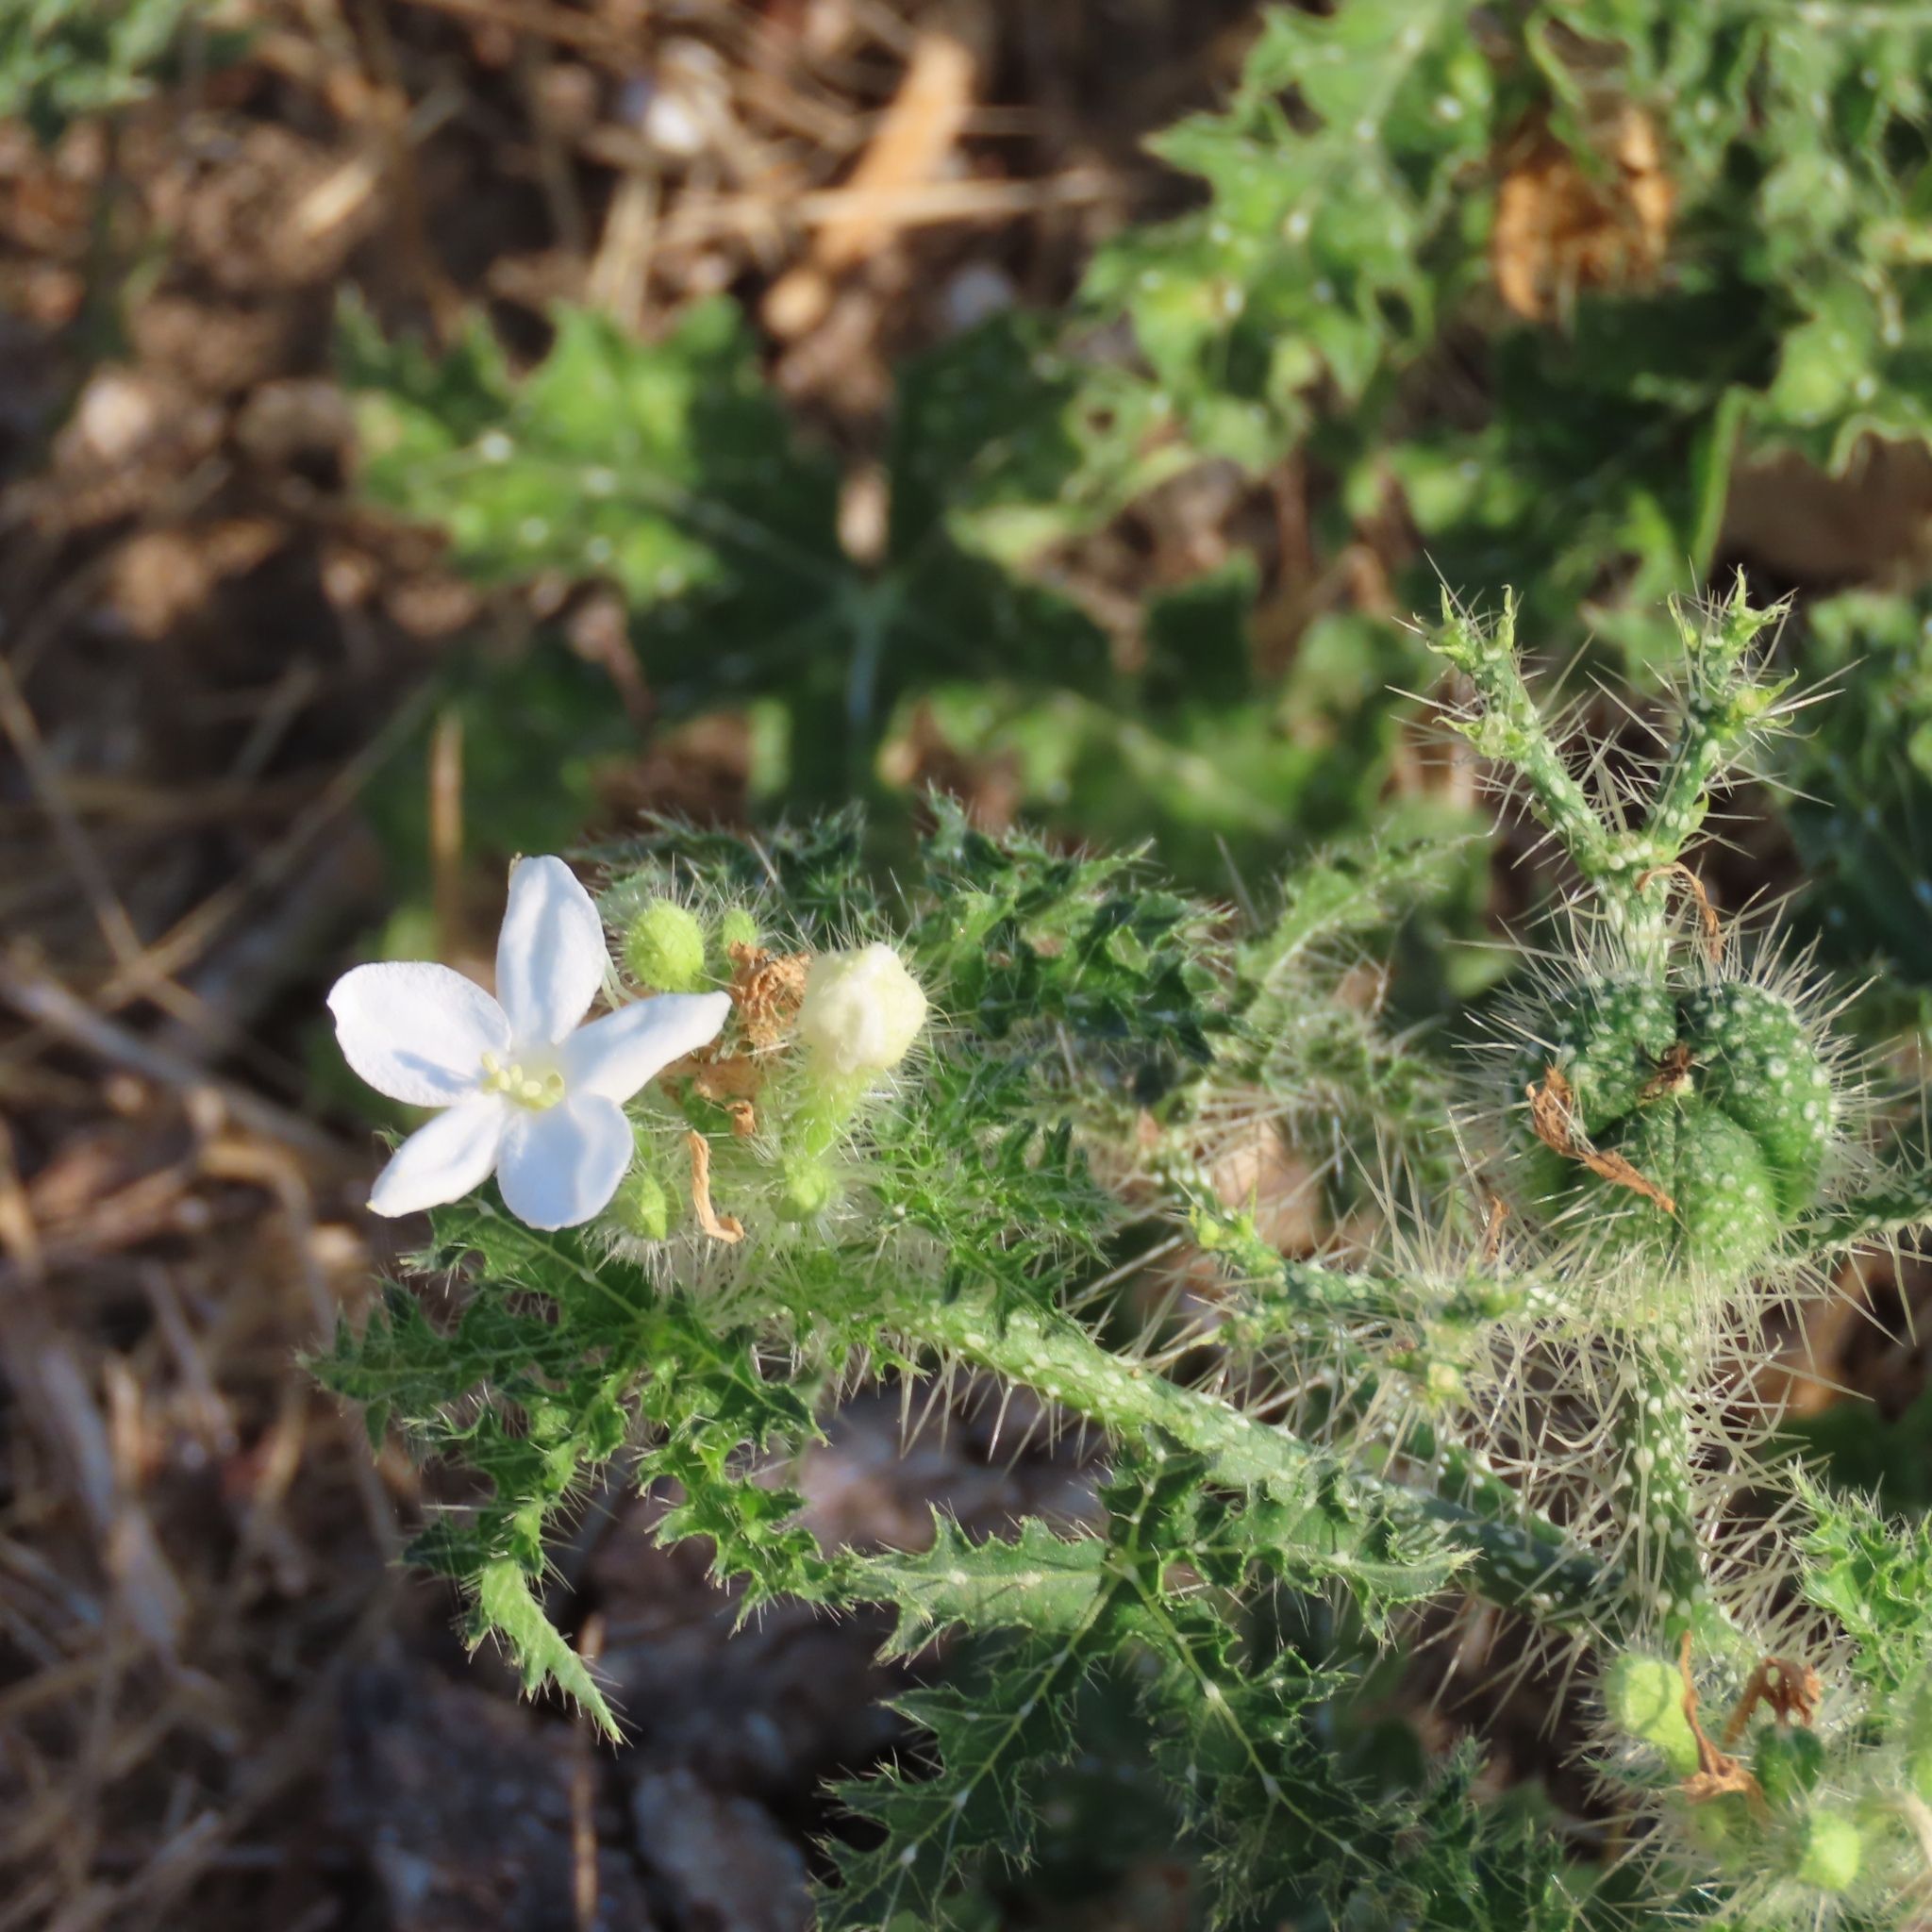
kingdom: Plantae
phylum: Tracheophyta
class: Magnoliopsida
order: Malpighiales
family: Euphorbiaceae
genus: Cnidoscolus
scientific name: Cnidoscolus texanus
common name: Texas bull-nettle
